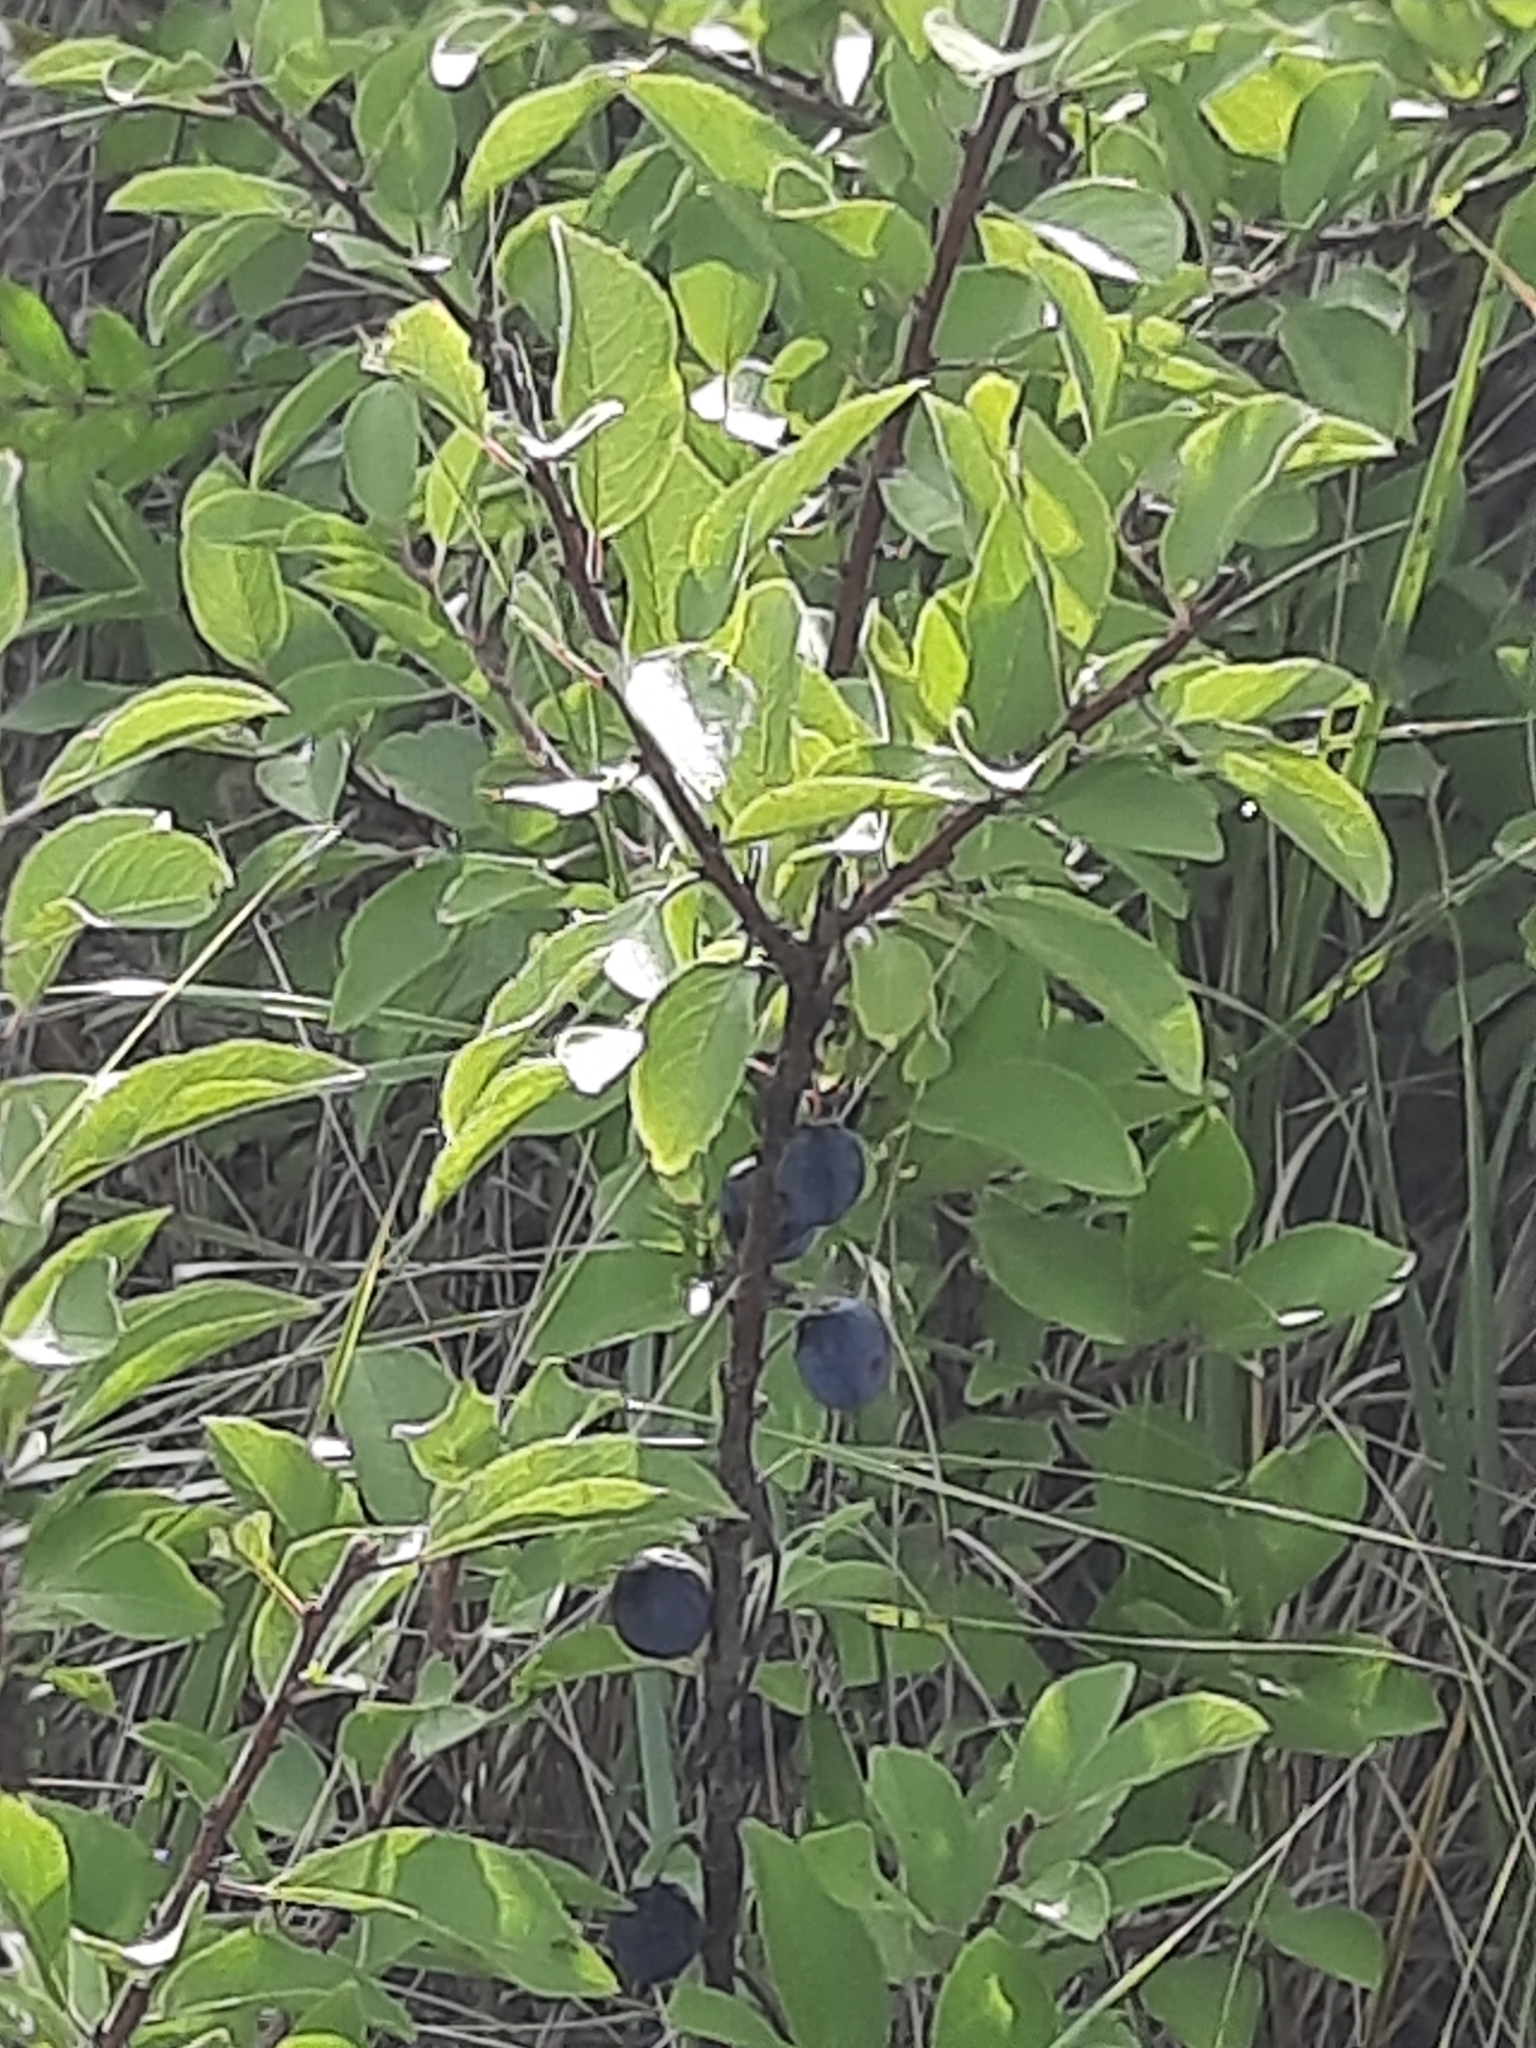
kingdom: Plantae
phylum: Tracheophyta
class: Magnoliopsida
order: Rosales
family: Rosaceae
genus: Prunus
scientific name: Prunus maritima
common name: Beach plum
